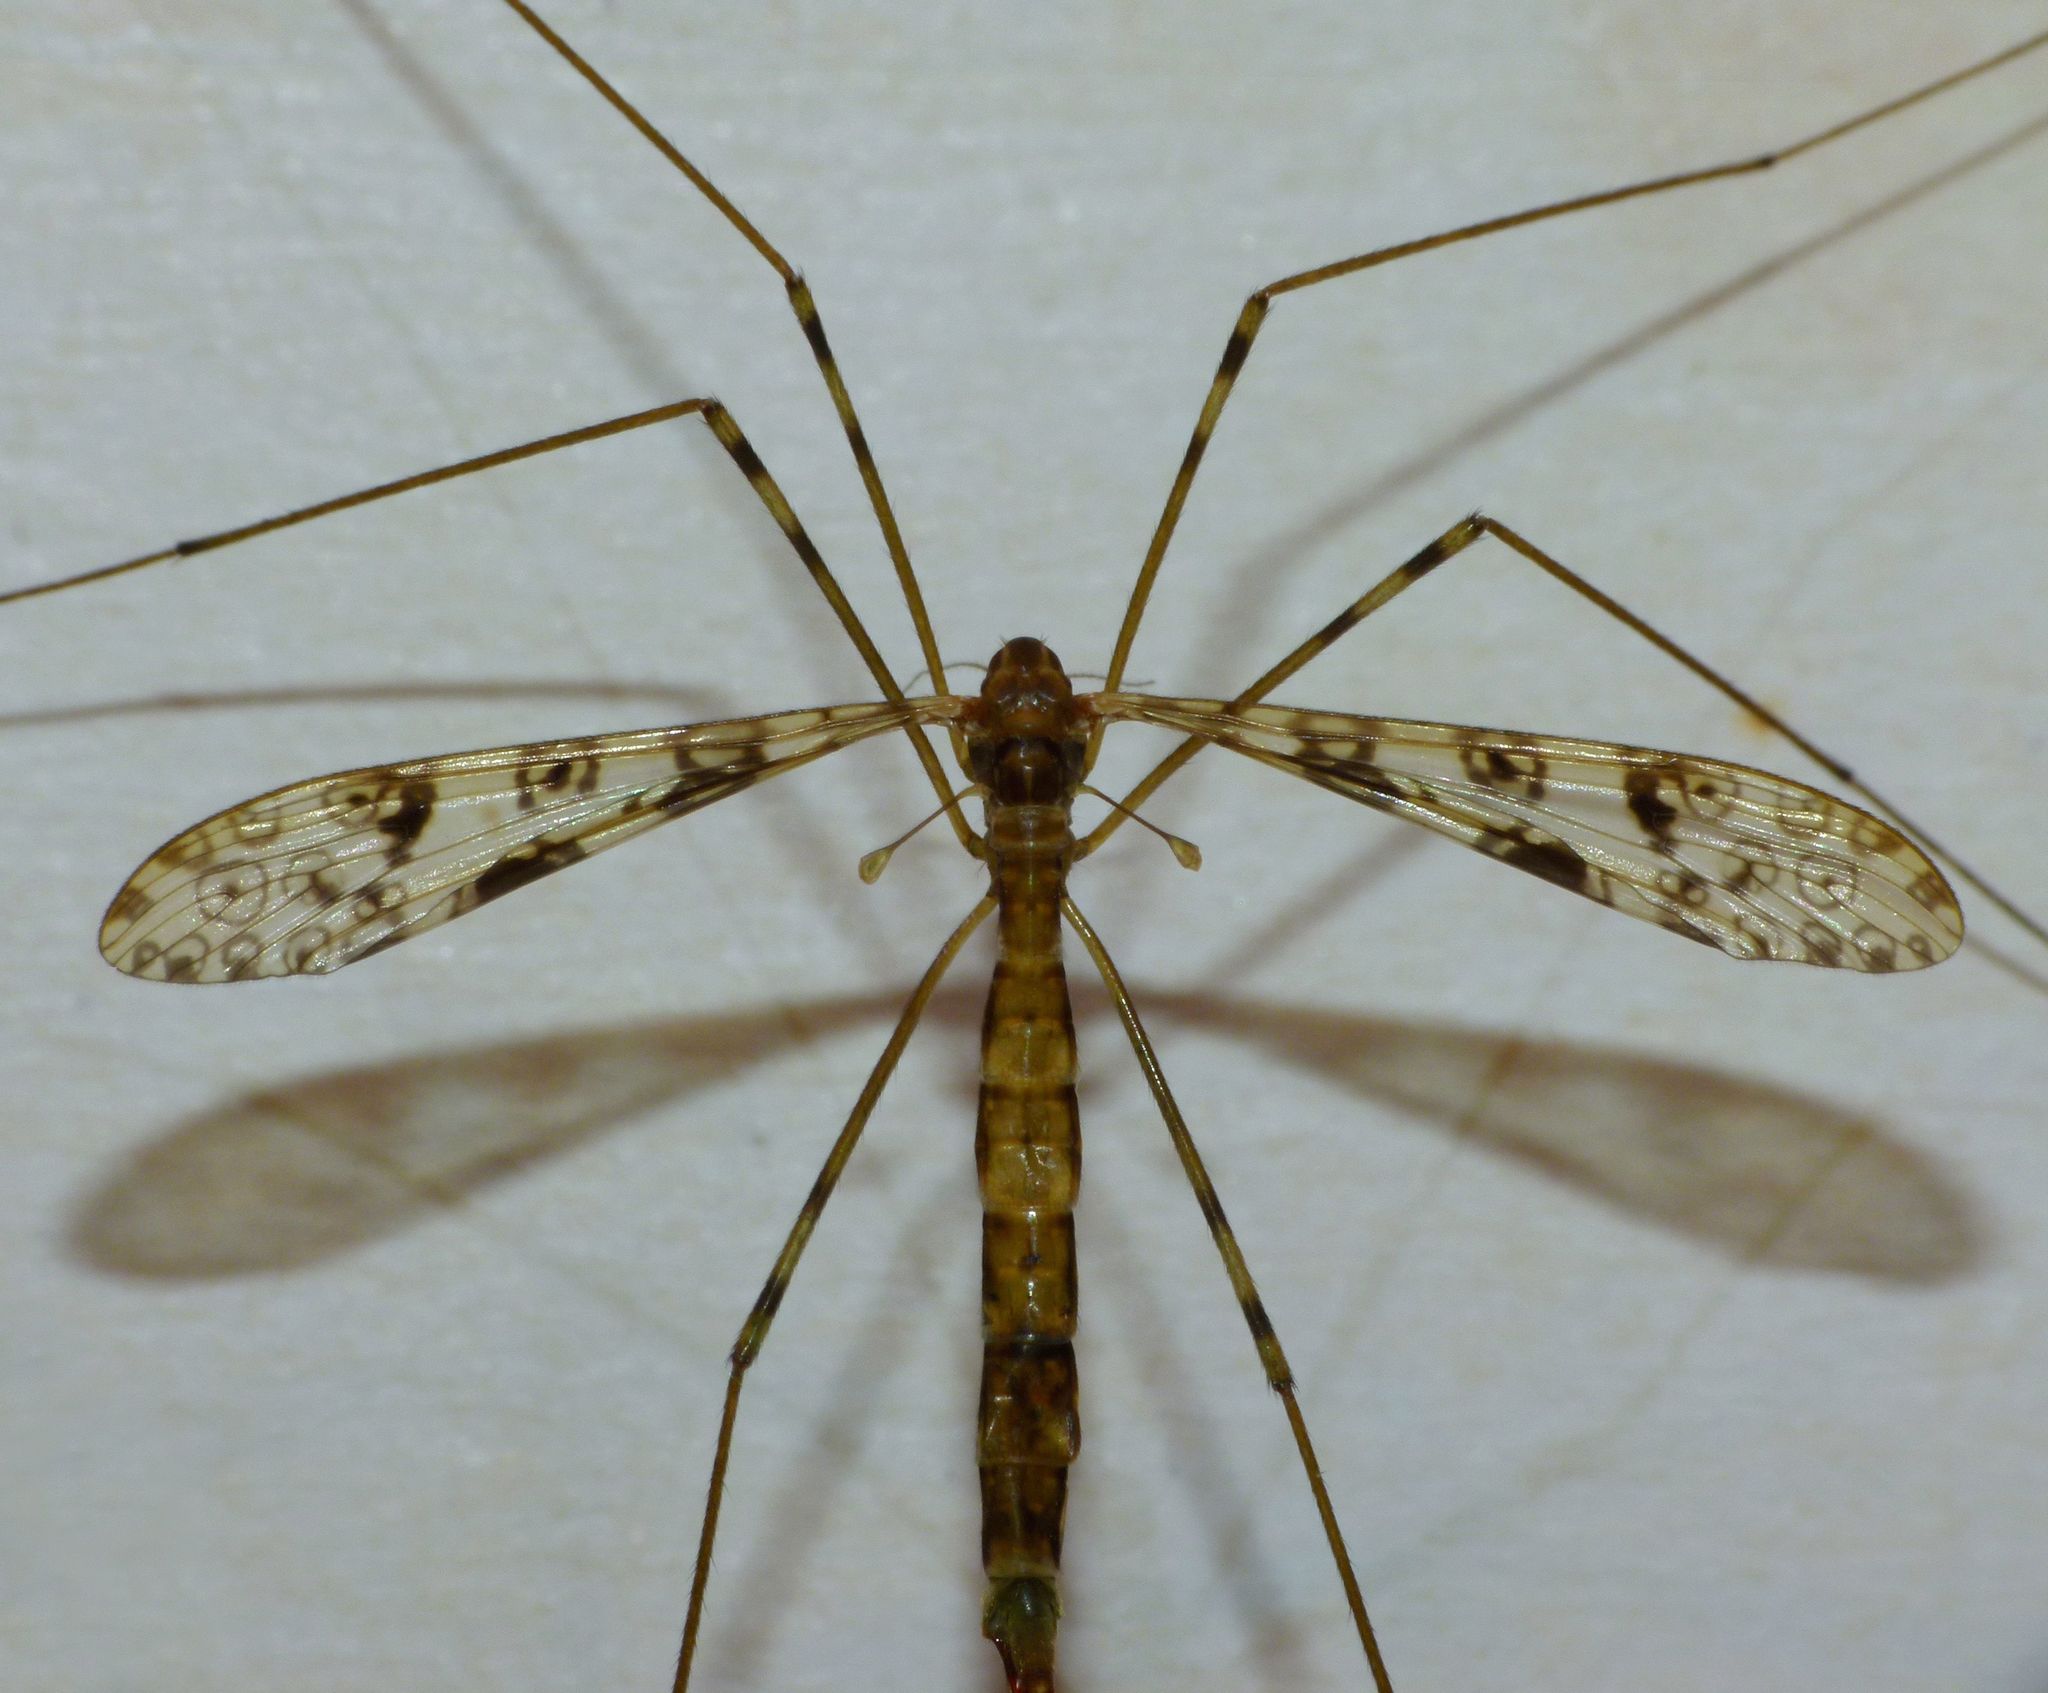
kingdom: Animalia
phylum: Arthropoda
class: Insecta
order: Diptera
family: Limoniidae
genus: Austrolimnophila
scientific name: Austrolimnophila argus
